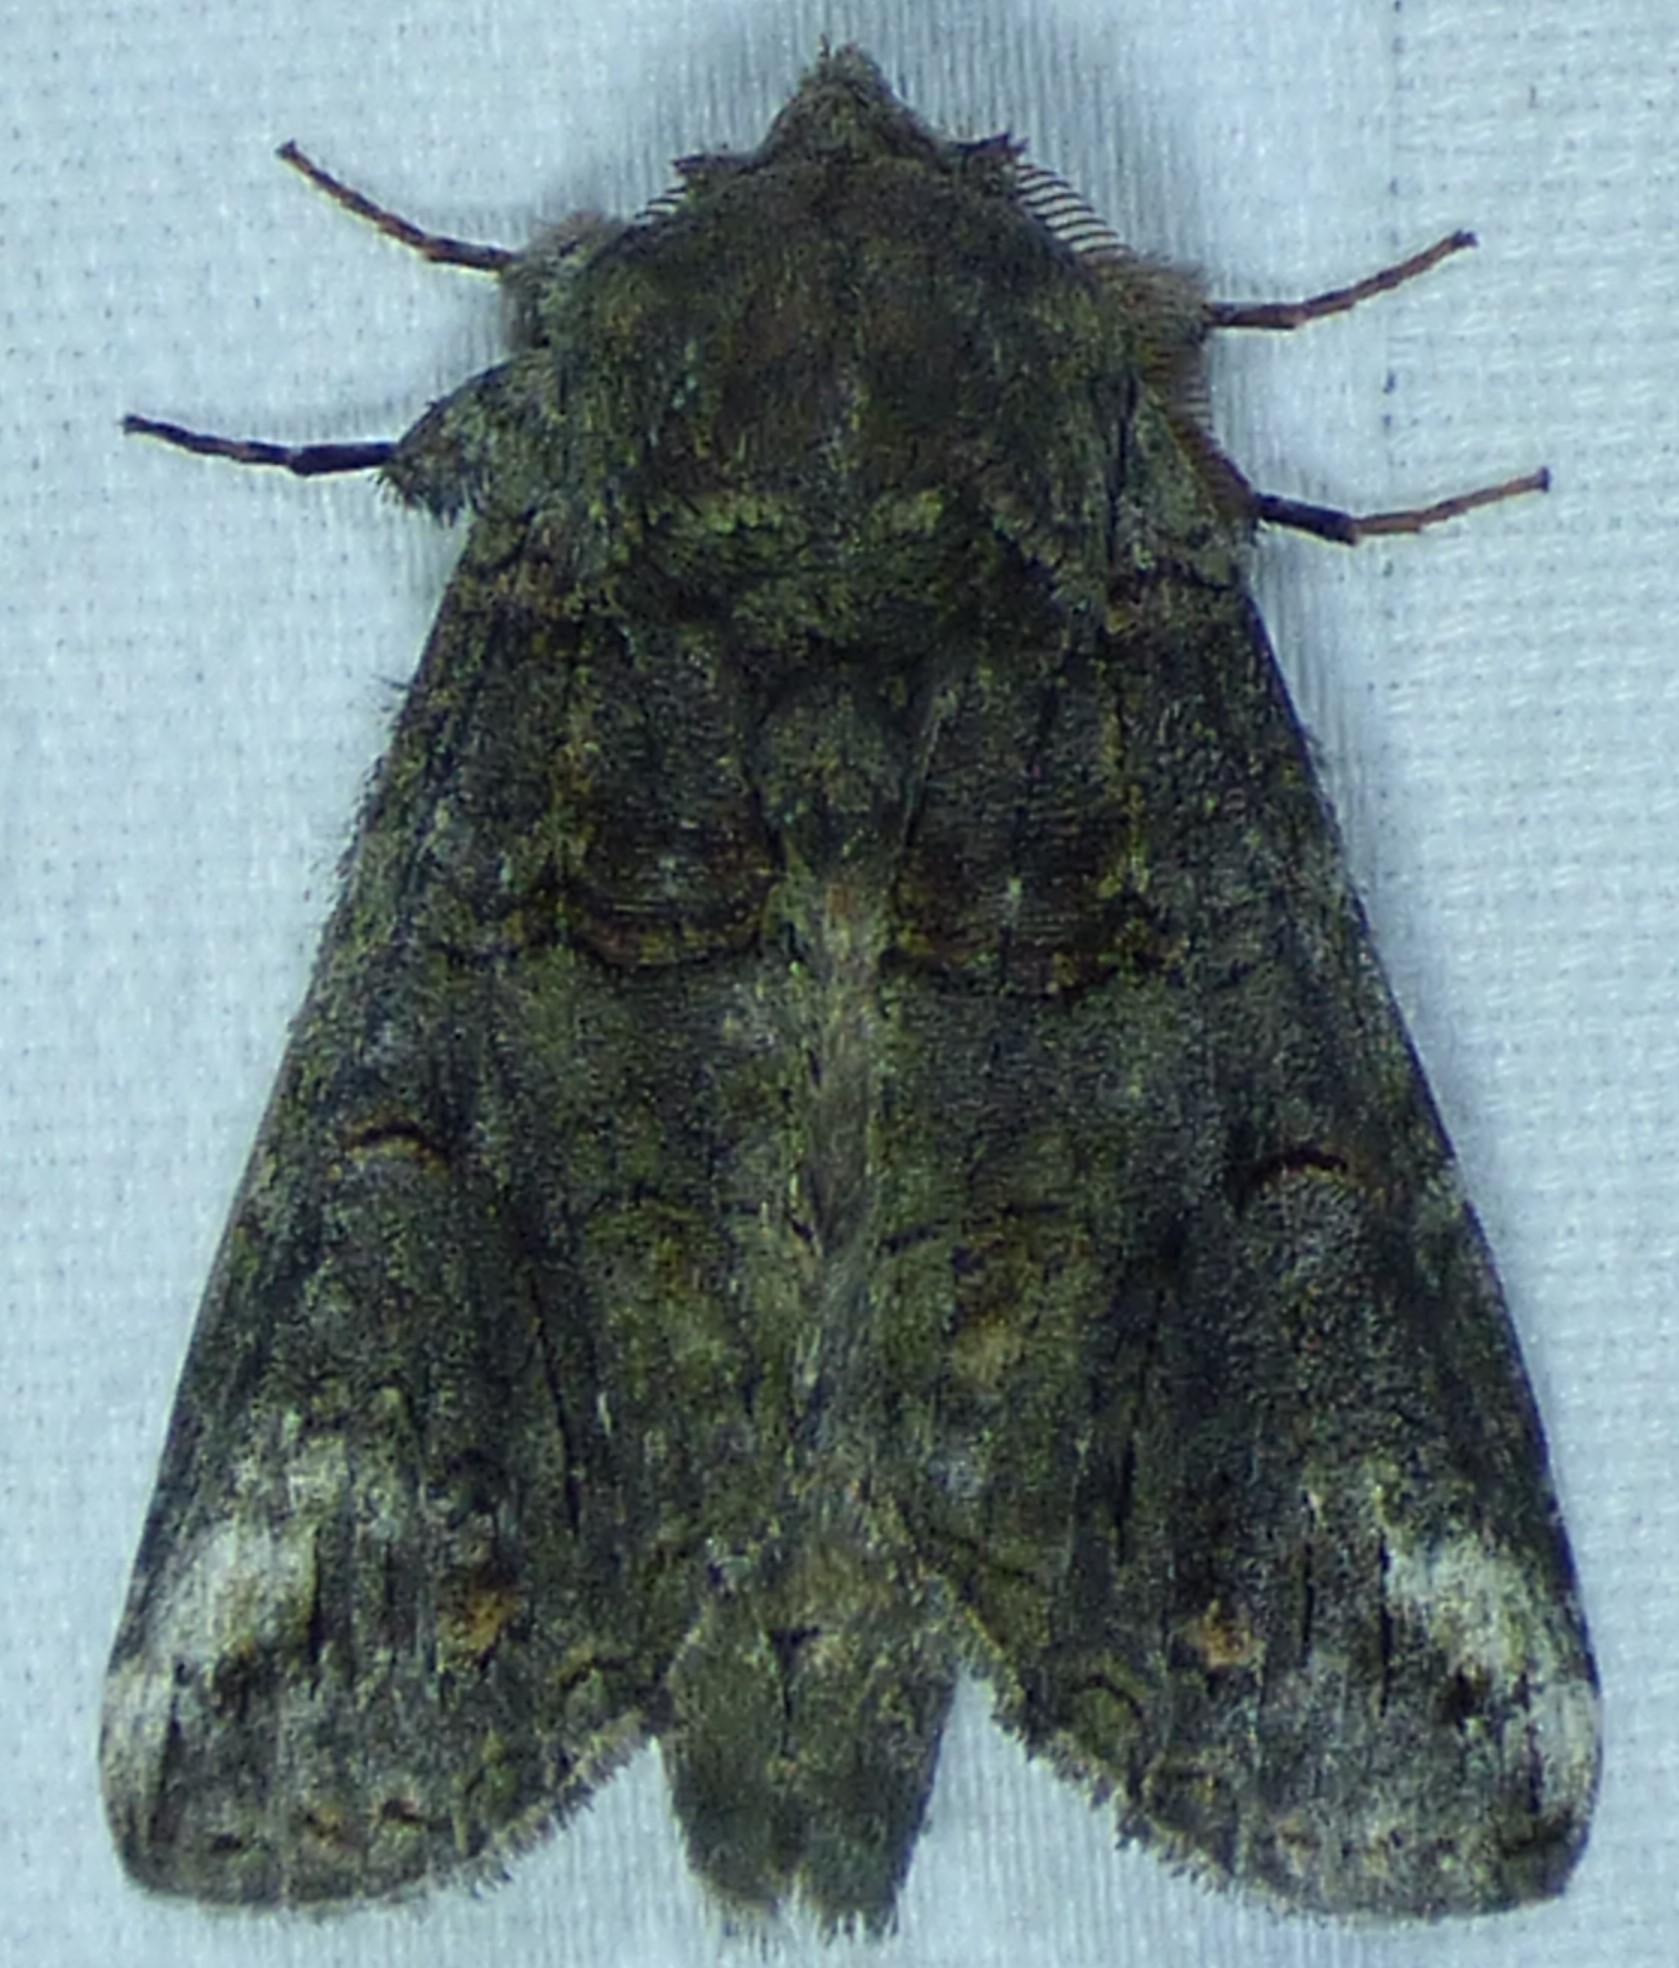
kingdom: Animalia
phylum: Arthropoda
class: Insecta
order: Lepidoptera
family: Notodontidae
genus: Heterocampa
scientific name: Heterocampa obliqua
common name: Oblique heterocampa
